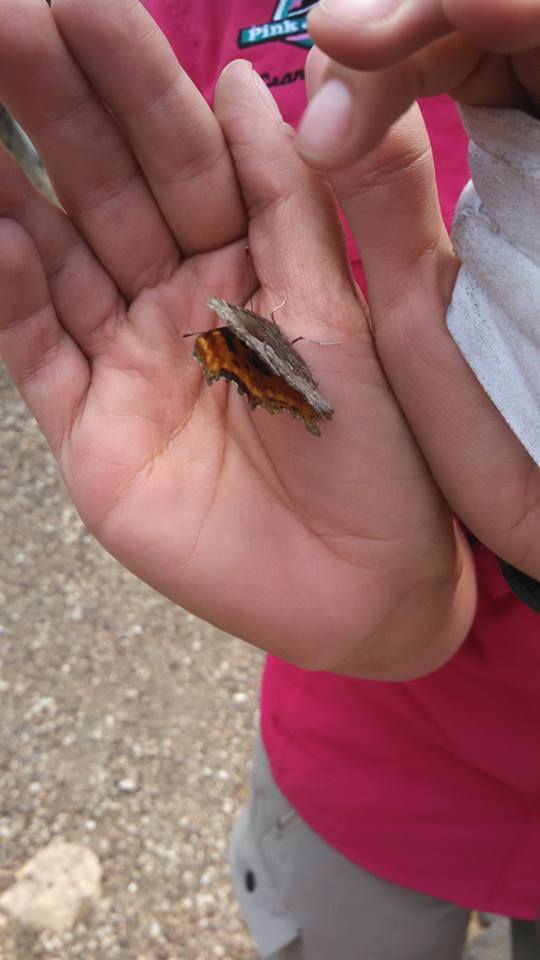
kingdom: Animalia
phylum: Arthropoda
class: Insecta
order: Lepidoptera
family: Nymphalidae
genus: Polygonia
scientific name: Polygonia gracilis
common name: Hoary comma
